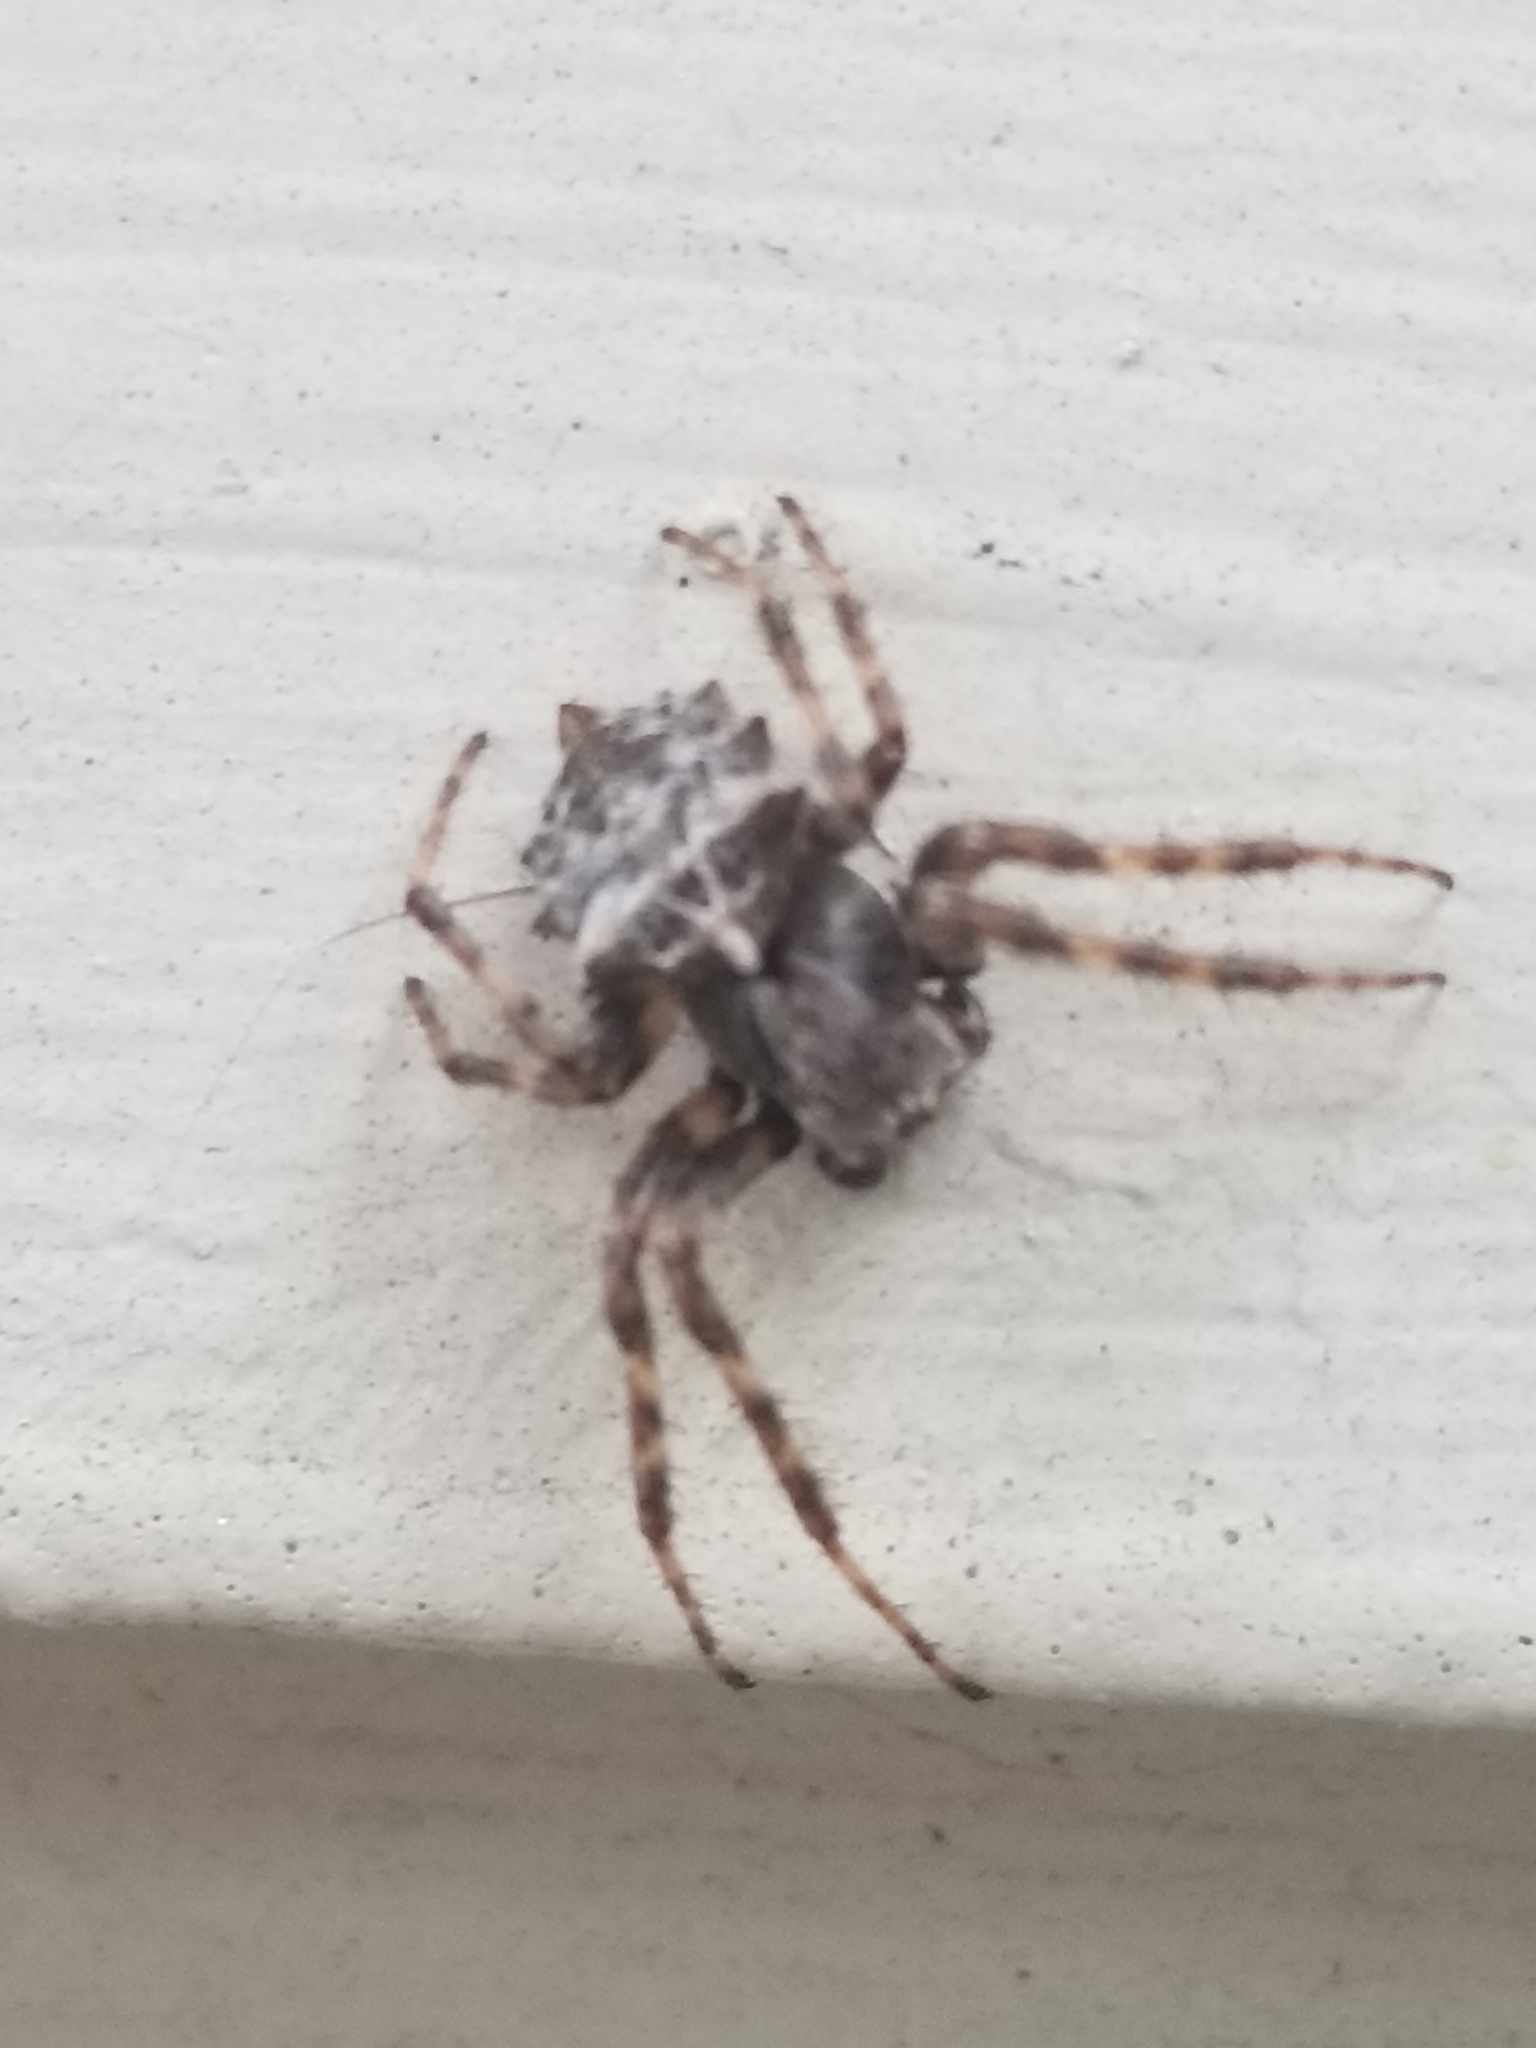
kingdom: Animalia
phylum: Arthropoda
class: Arachnida
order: Araneae
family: Araneidae
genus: Acanthepeira
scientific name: Acanthepeira stellata
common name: Starbellied orbweaver
